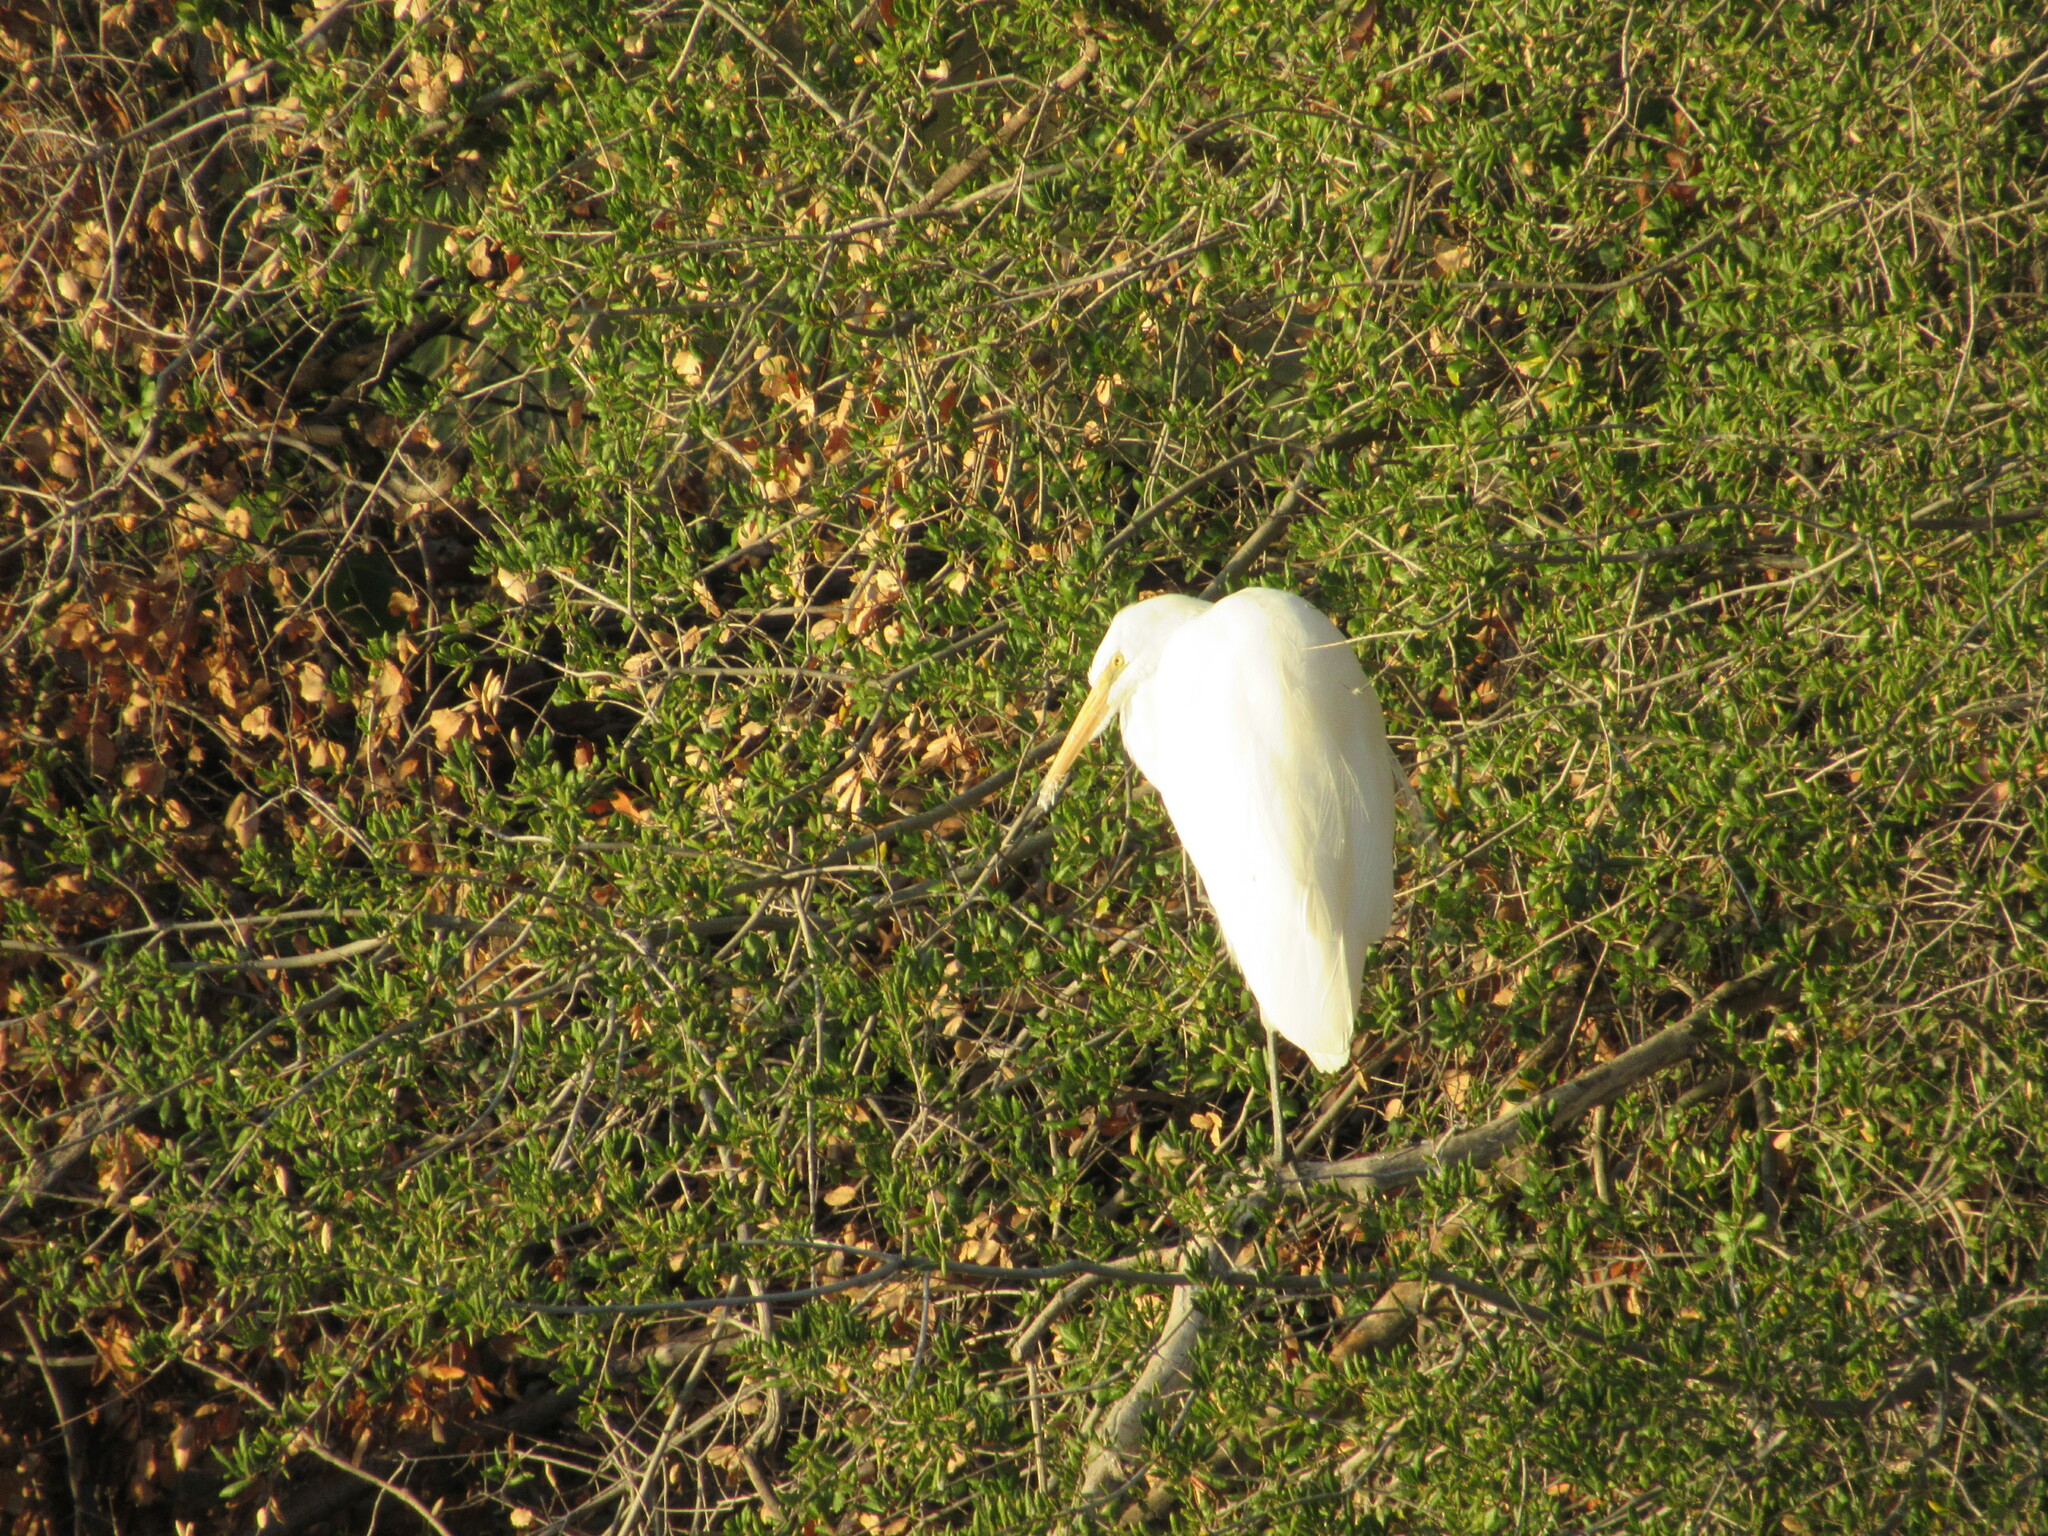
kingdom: Animalia
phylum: Chordata
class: Aves
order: Pelecaniformes
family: Ardeidae
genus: Ardea
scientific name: Ardea alba
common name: Great egret
